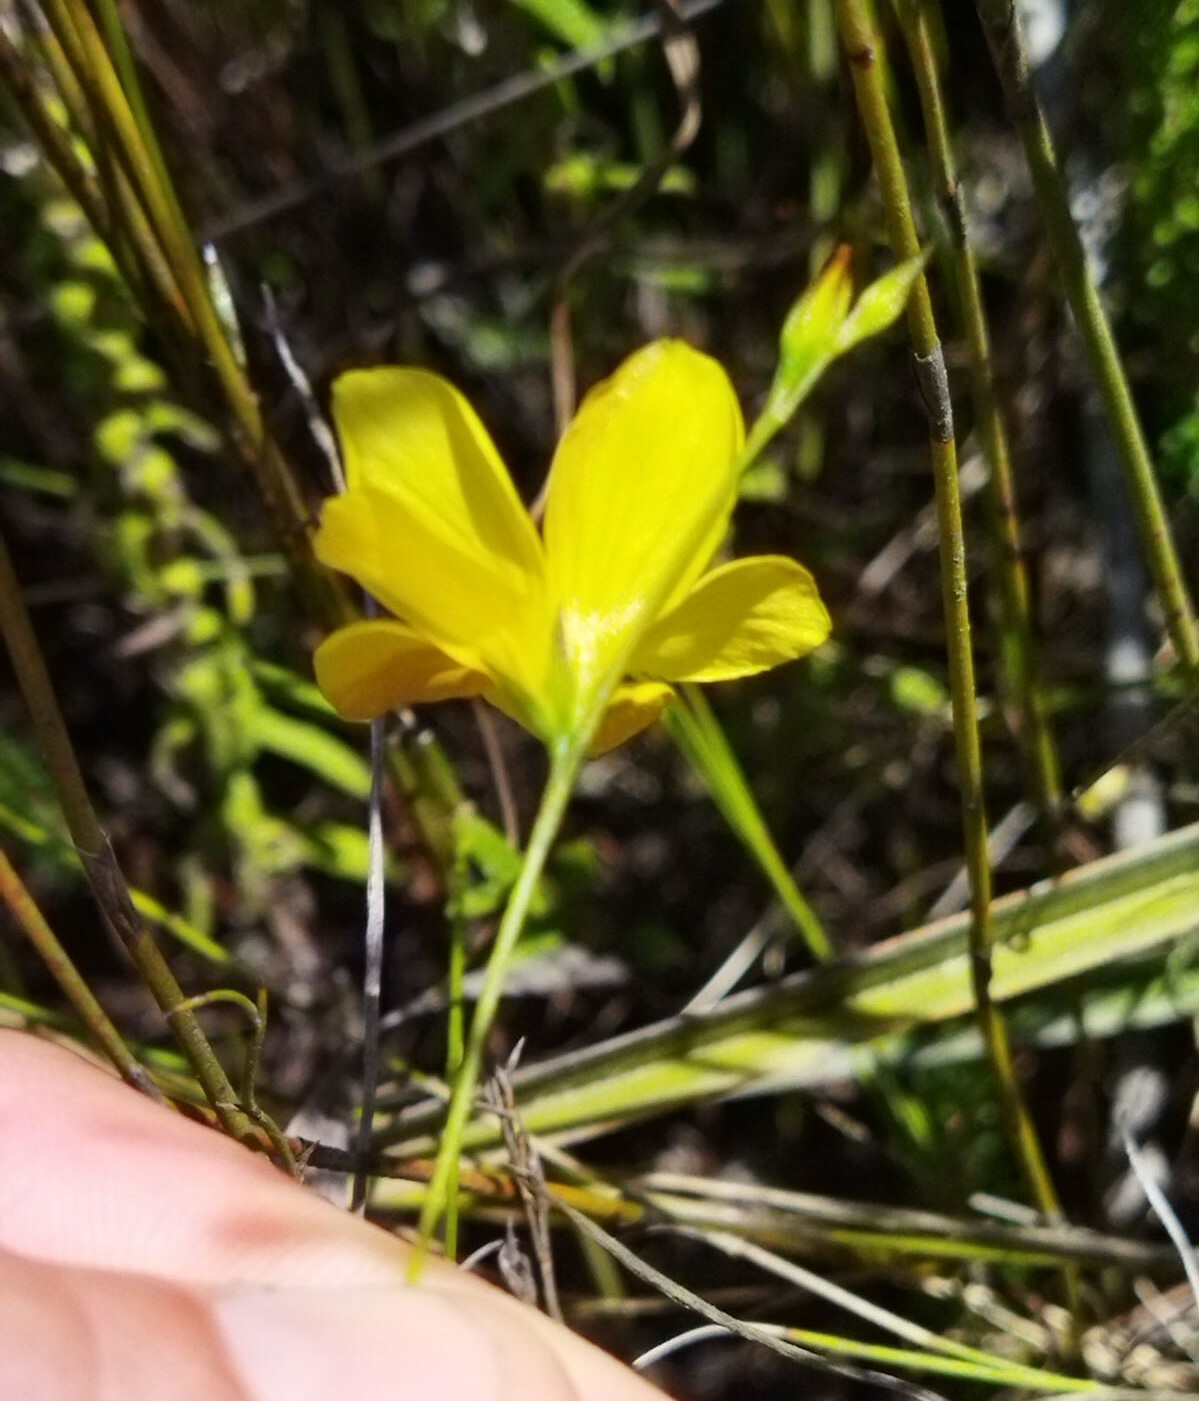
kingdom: Plantae
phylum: Tracheophyta
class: Magnoliopsida
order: Malpighiales
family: Linaceae
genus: Linum
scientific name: Linum africanum
